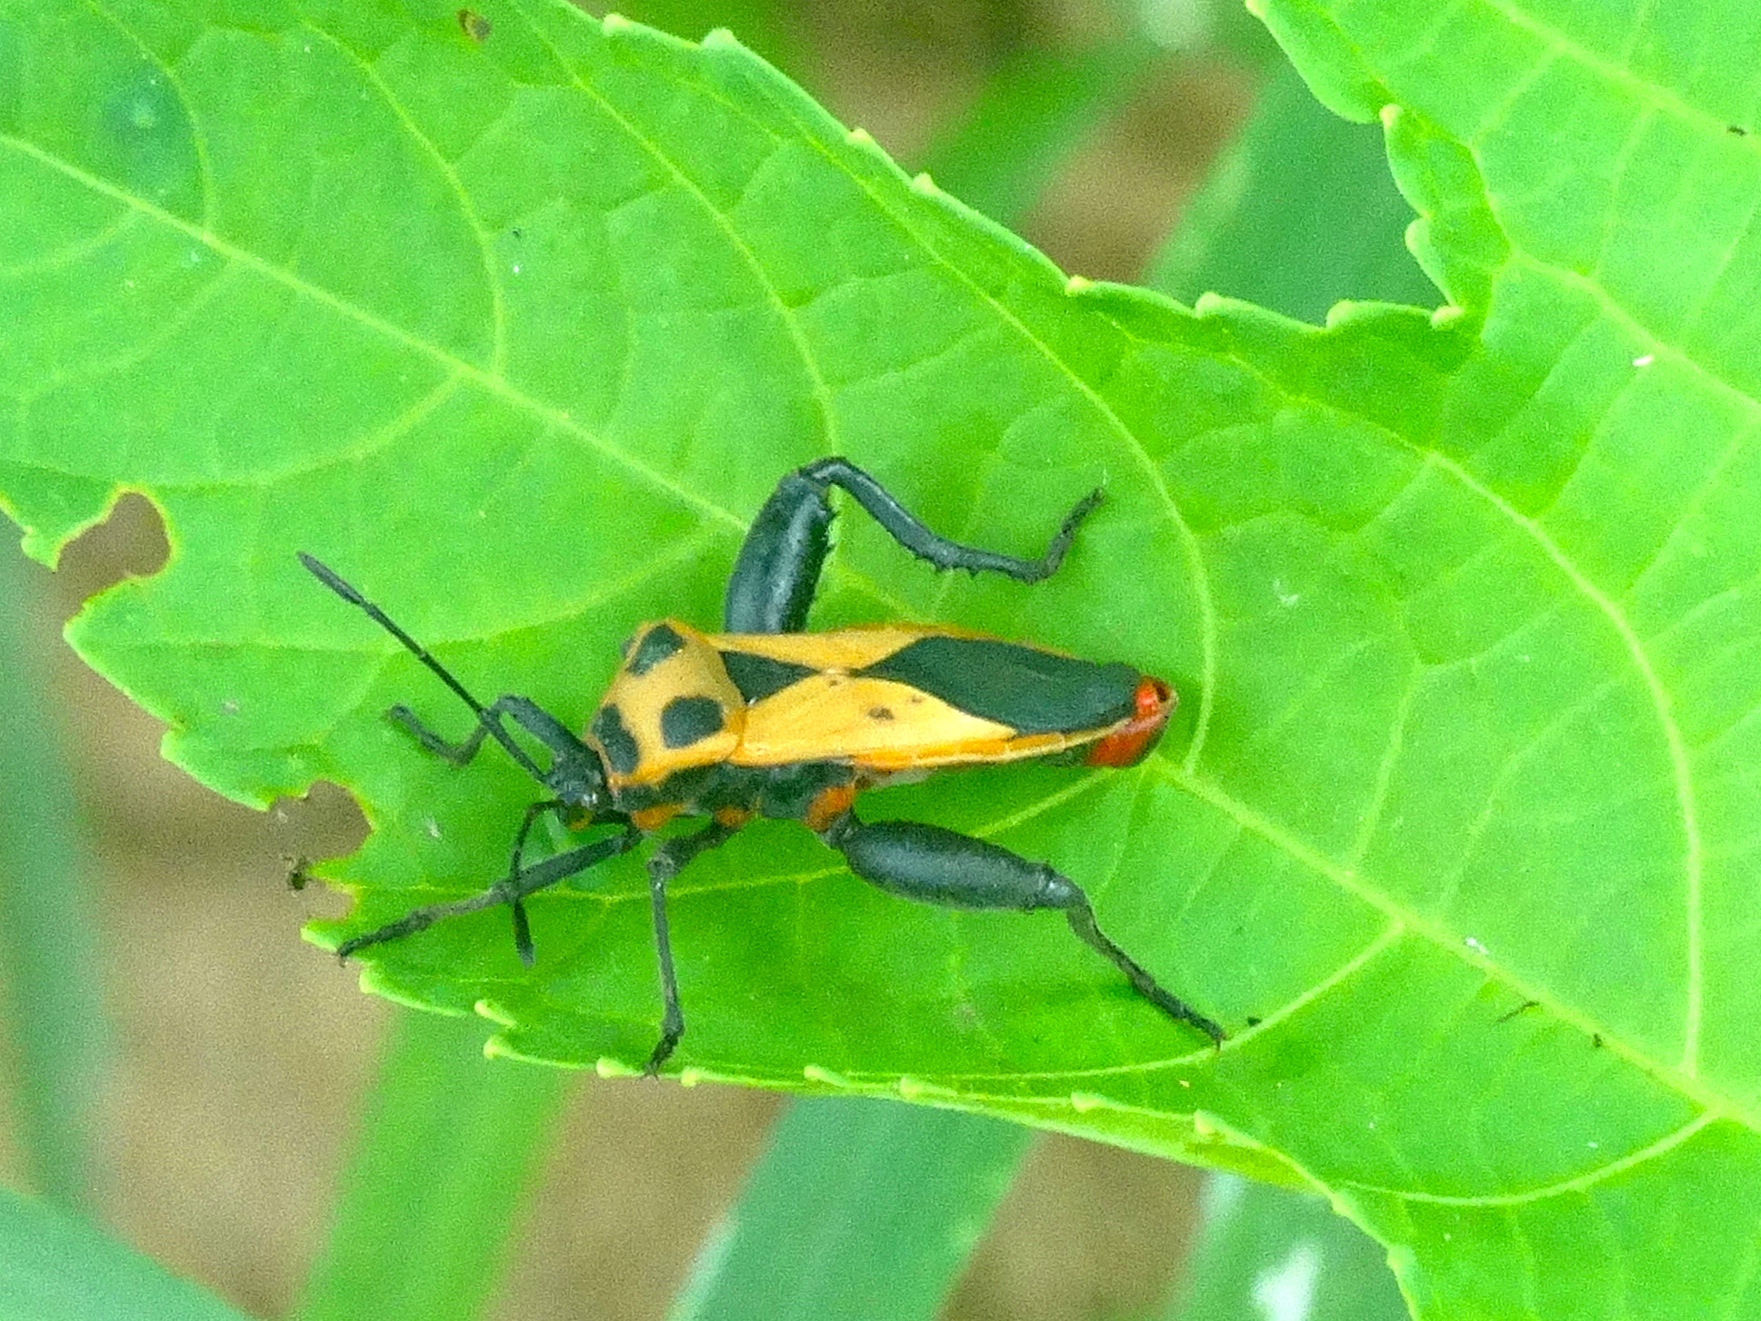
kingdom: Animalia
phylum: Arthropoda
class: Insecta
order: Hemiptera
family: Coreidae
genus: Sagotylus
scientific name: Sagotylus confluens
